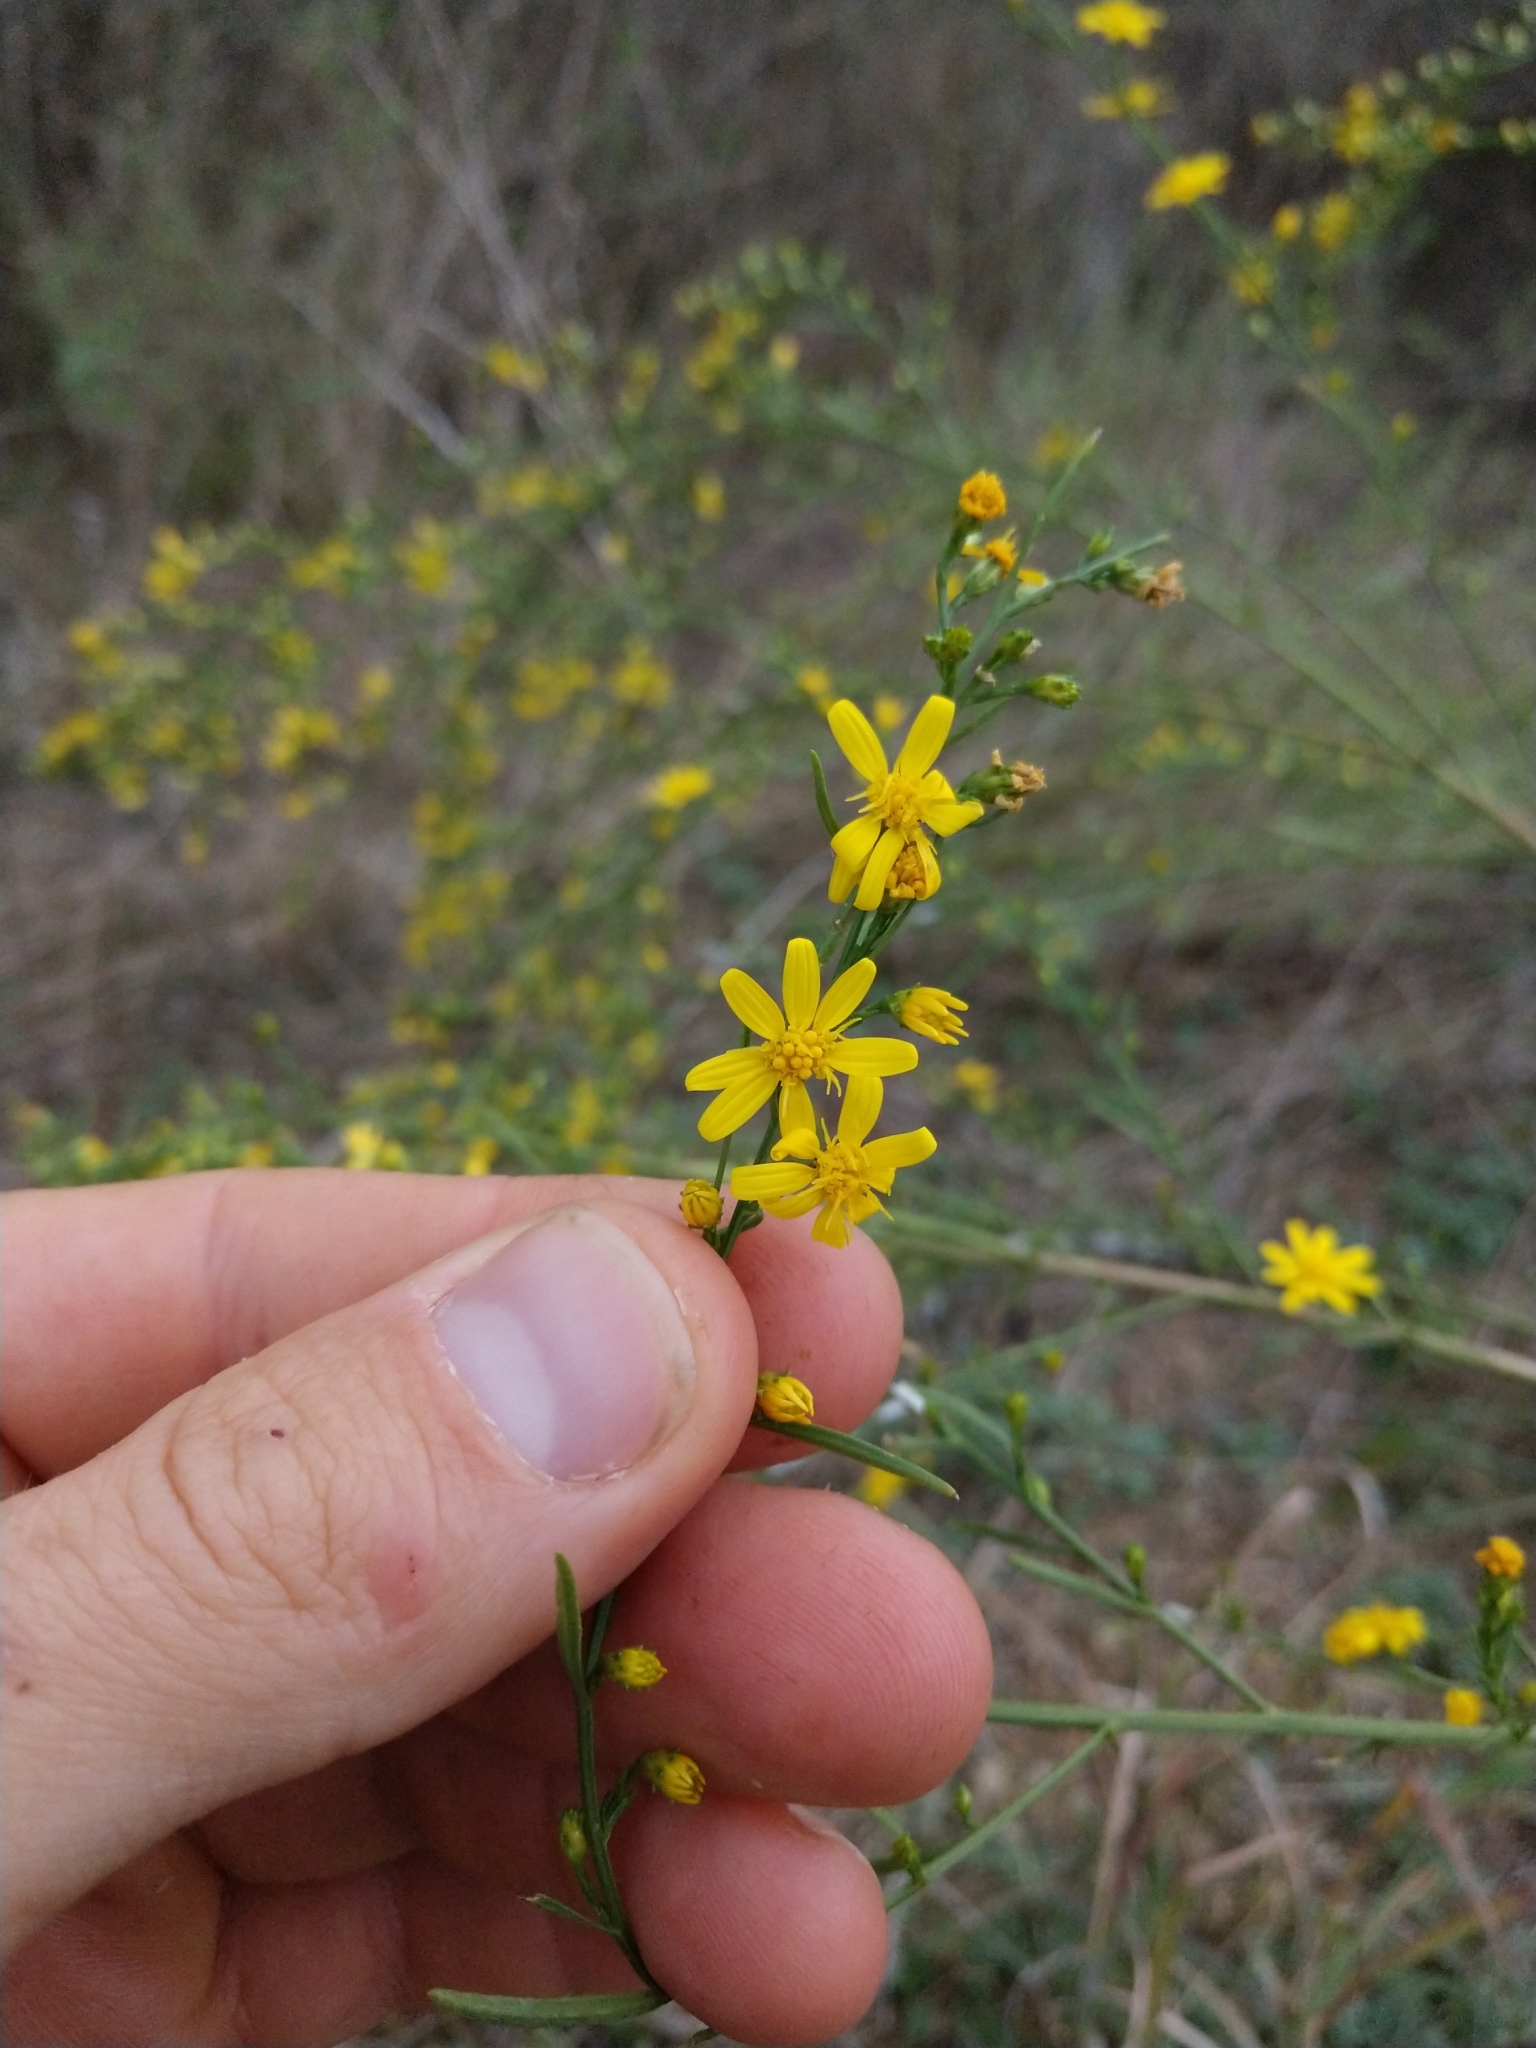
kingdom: Plantae
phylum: Tracheophyta
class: Magnoliopsida
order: Asterales
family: Asteraceae
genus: Gutierrezia
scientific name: Gutierrezia texana
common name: Texas snakeweed
